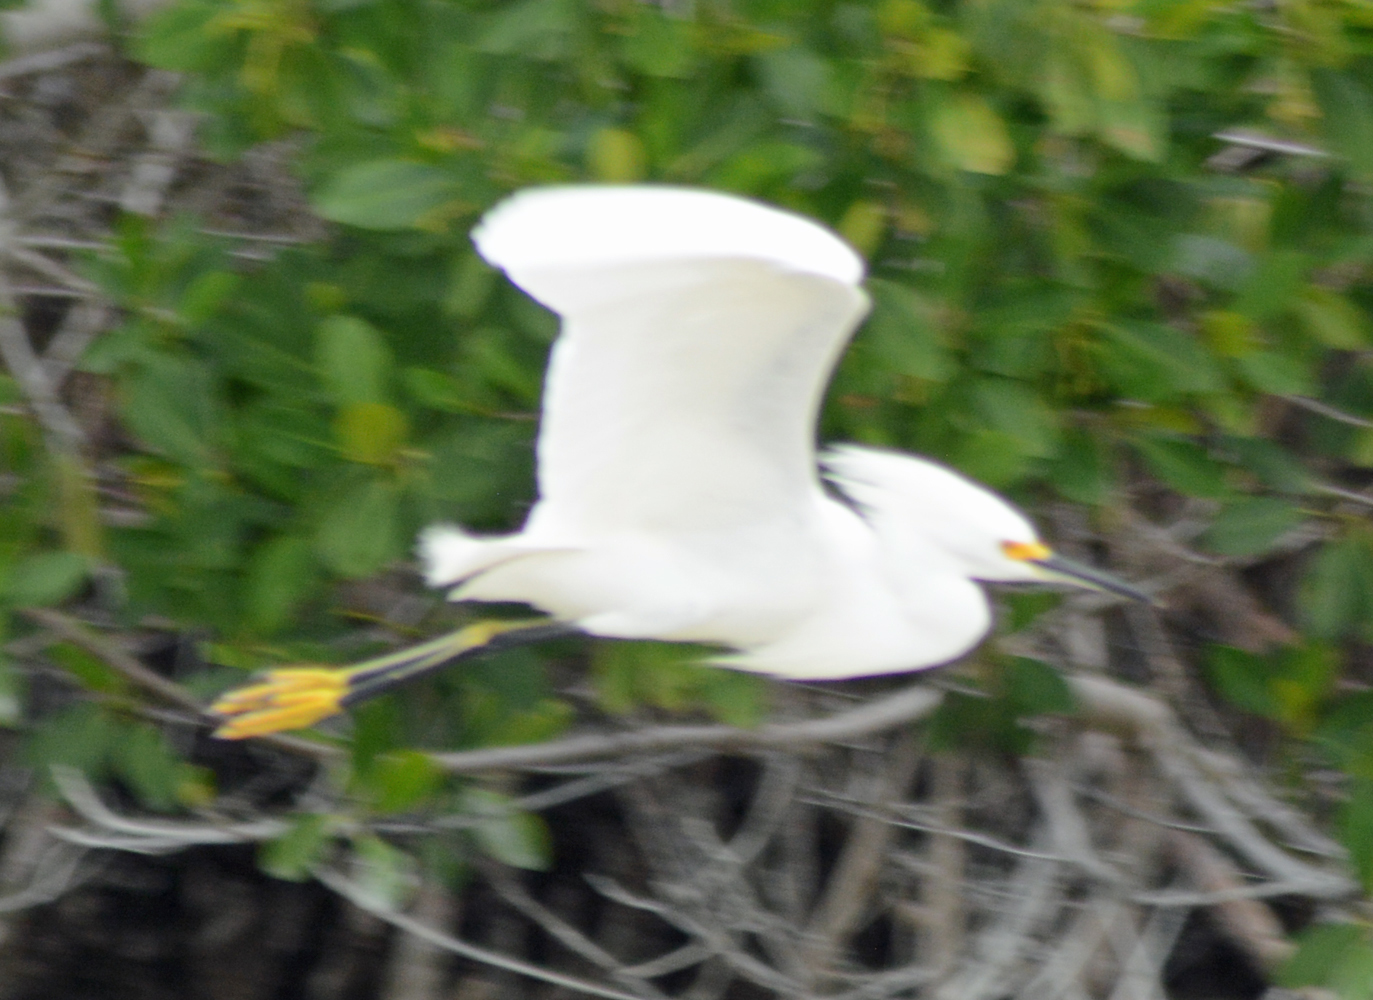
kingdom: Animalia
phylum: Chordata
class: Aves
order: Pelecaniformes
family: Ardeidae
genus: Egretta
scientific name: Egretta thula
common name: Snowy egret
